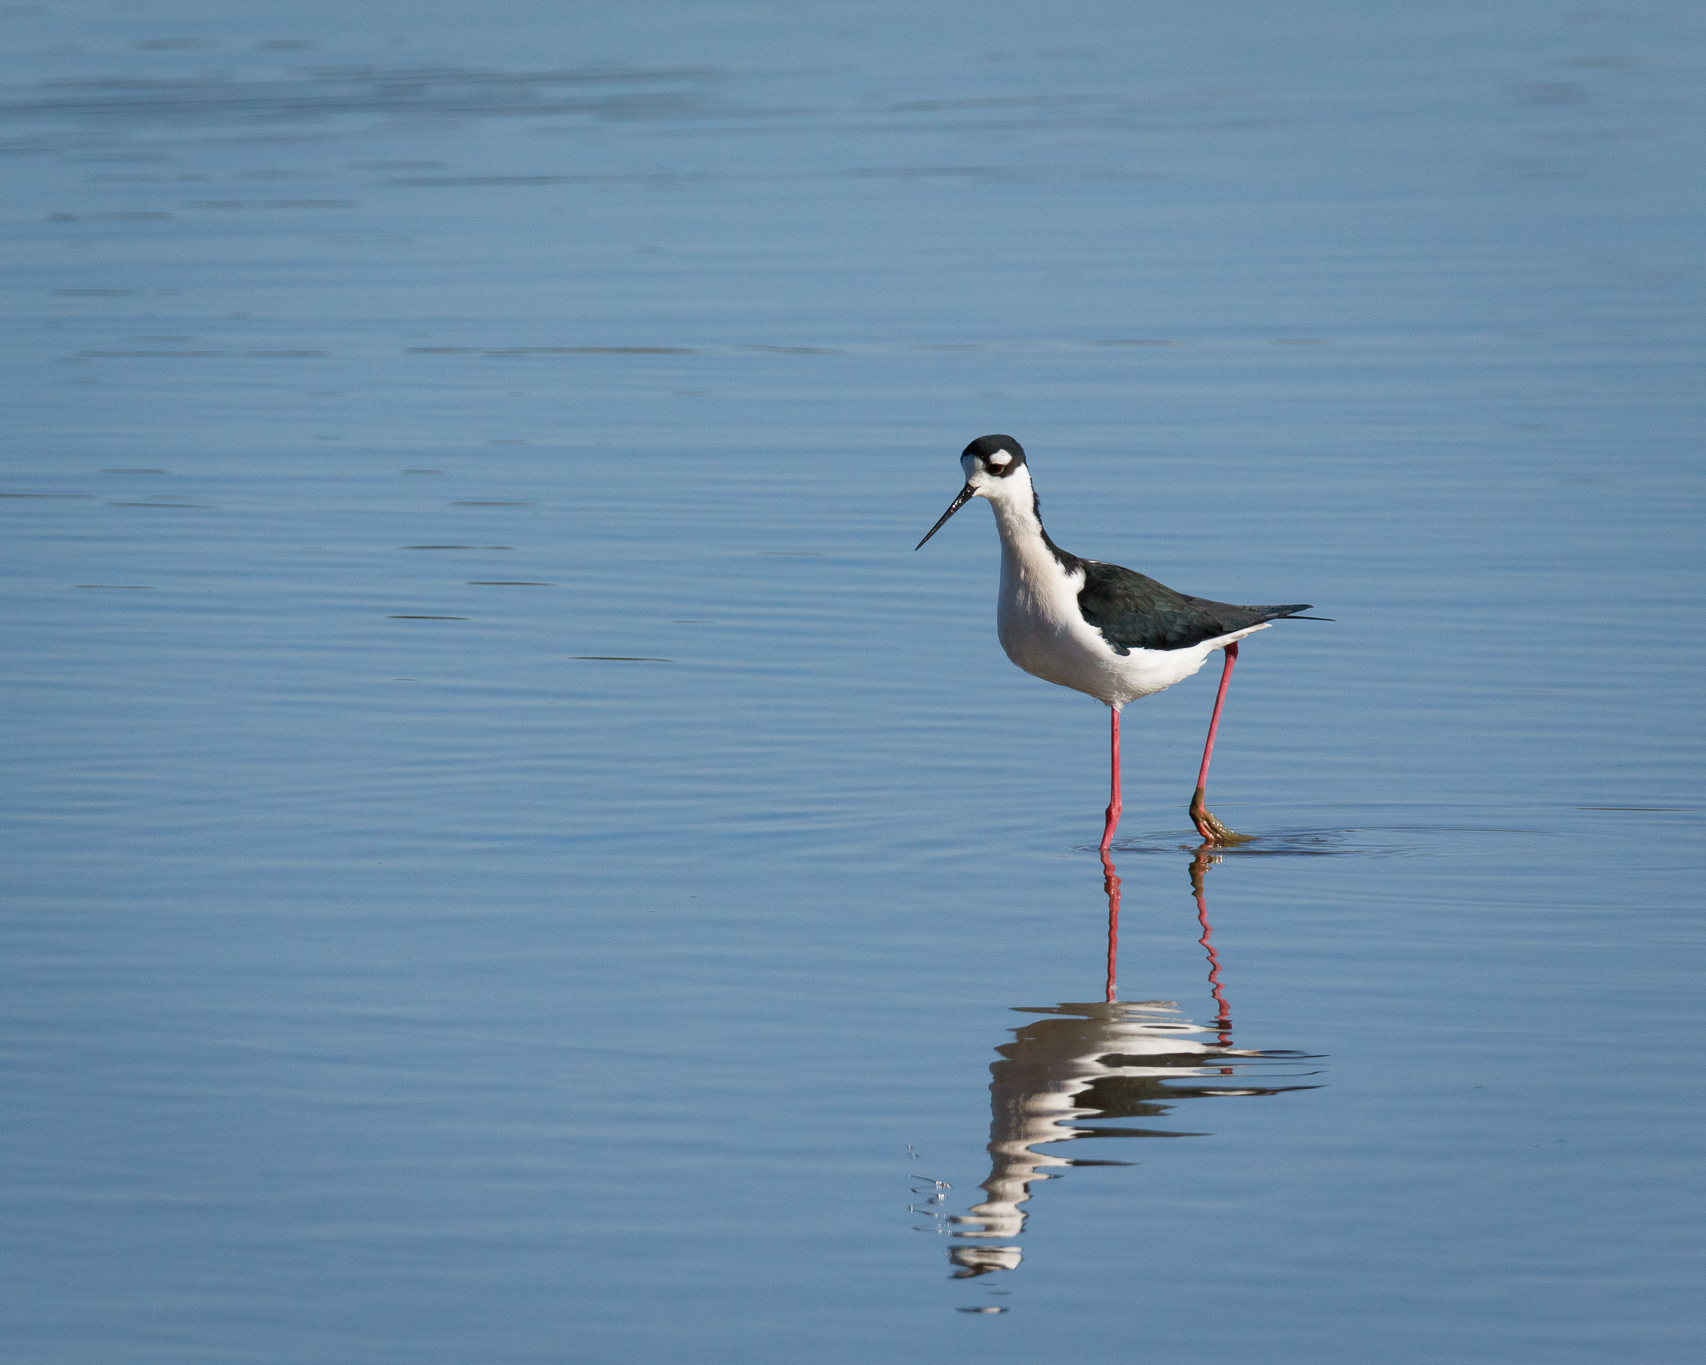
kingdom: Animalia
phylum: Chordata
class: Aves
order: Charadriiformes
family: Recurvirostridae
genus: Himantopus
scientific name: Himantopus mexicanus
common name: Black-necked stilt
